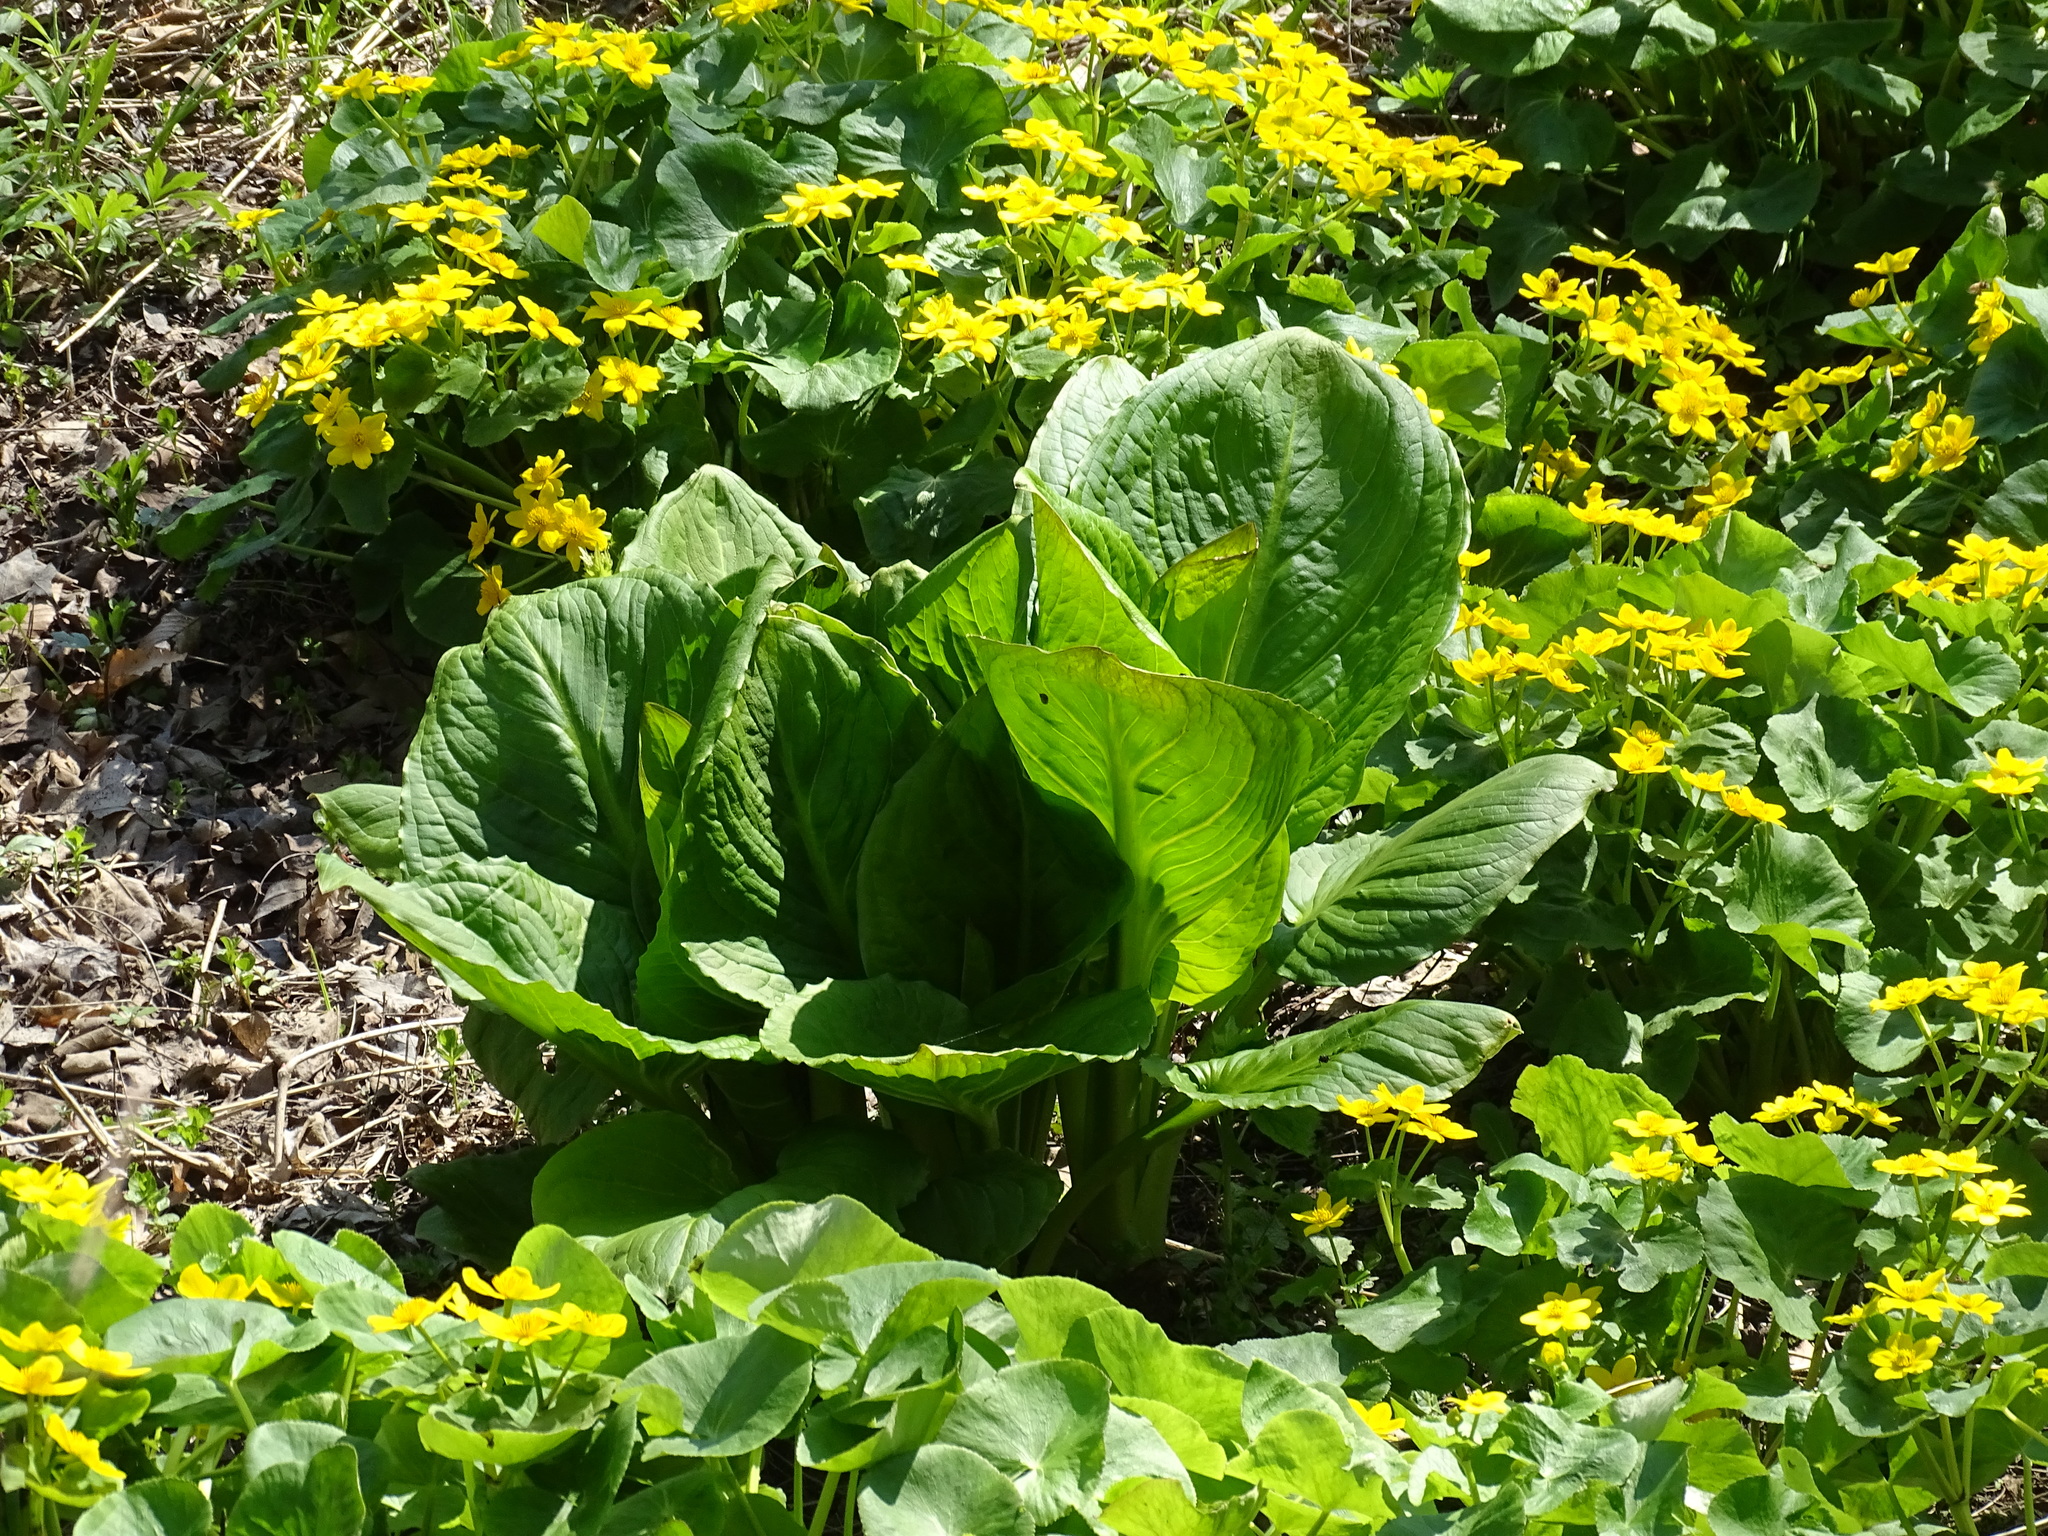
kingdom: Plantae
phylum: Tracheophyta
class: Liliopsida
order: Alismatales
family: Araceae
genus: Symplocarpus
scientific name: Symplocarpus foetidus
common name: Eastern skunk cabbage
